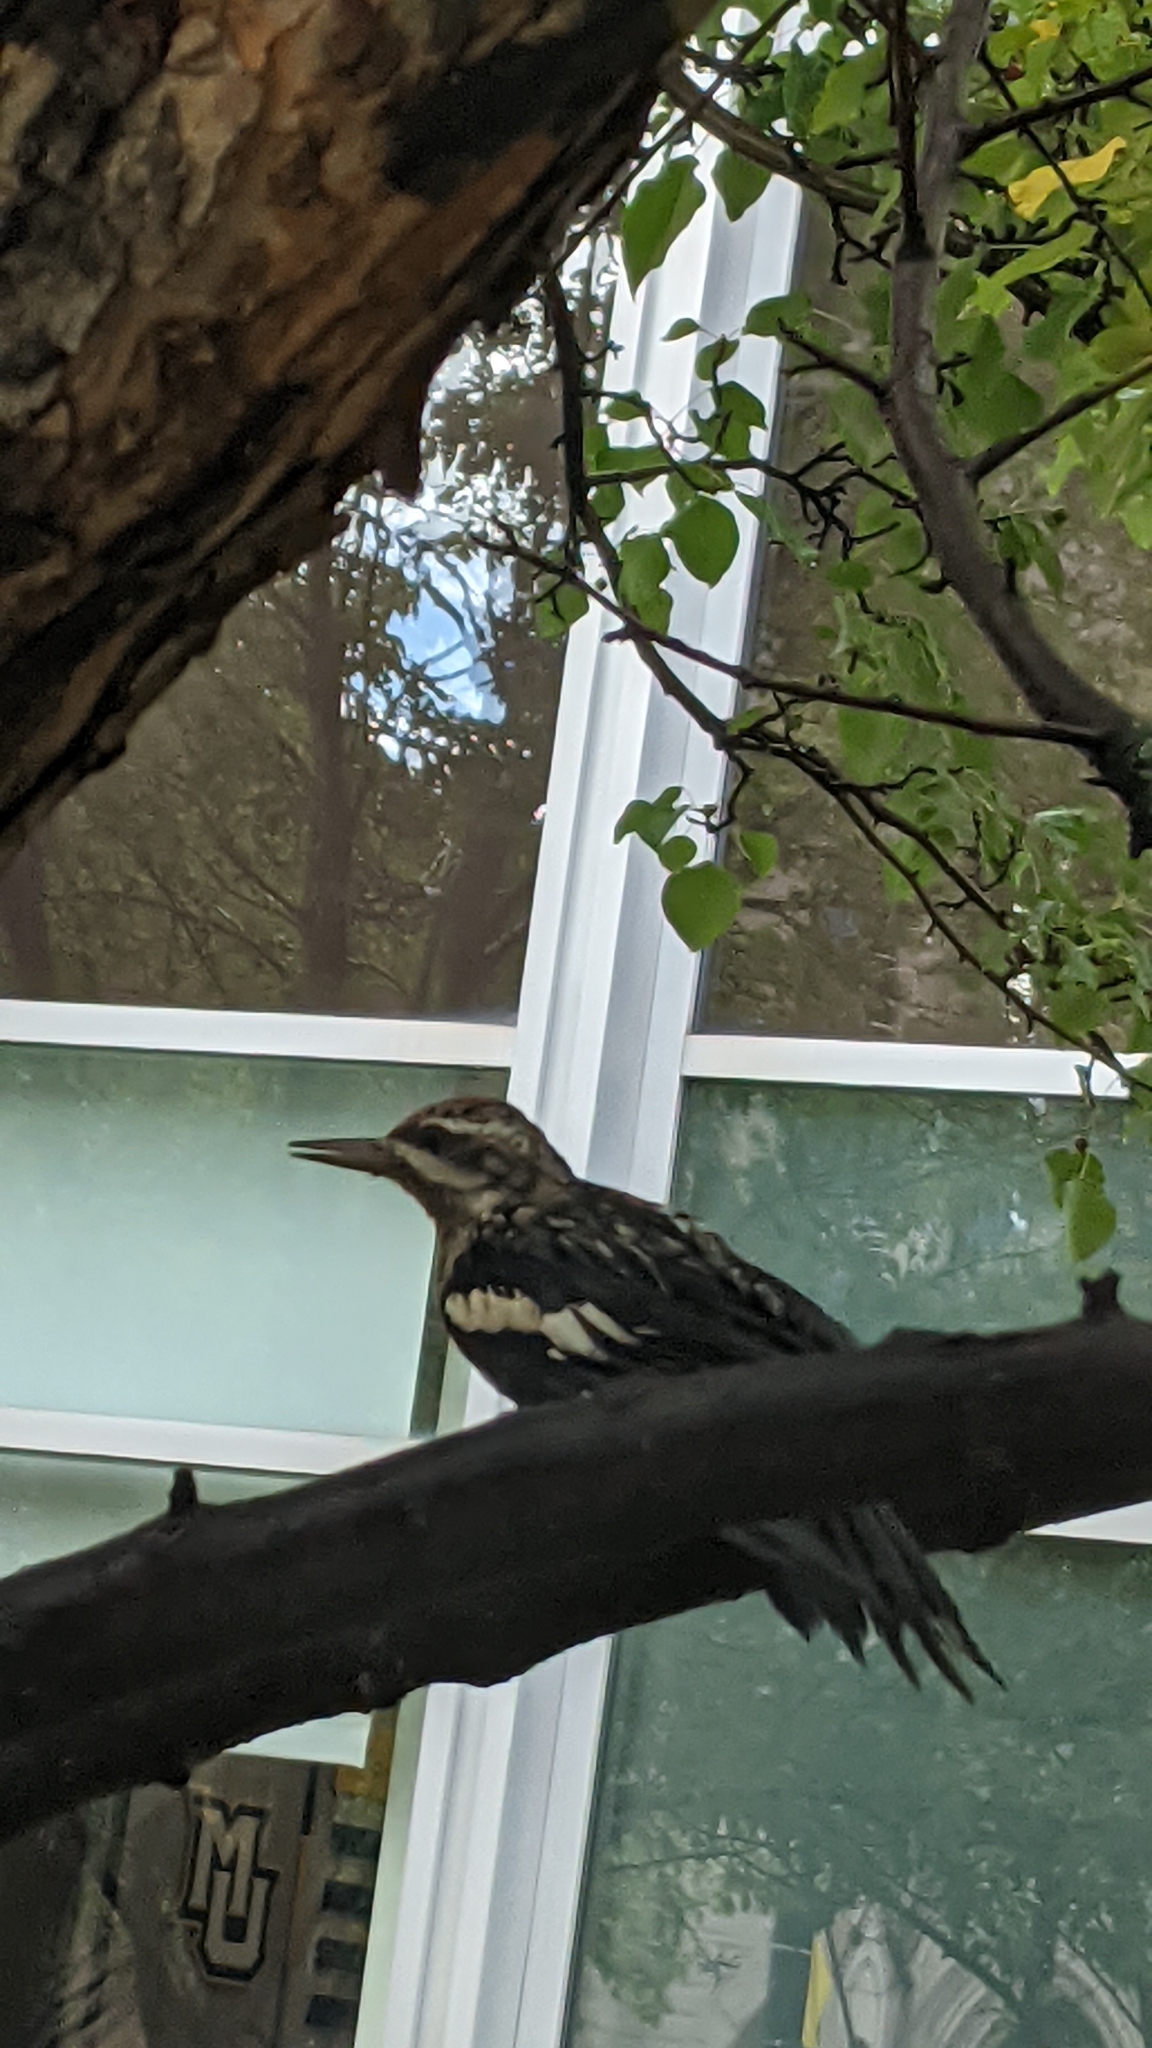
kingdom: Animalia
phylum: Chordata
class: Aves
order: Piciformes
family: Picidae
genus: Sphyrapicus
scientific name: Sphyrapicus varius
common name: Yellow-bellied sapsucker
